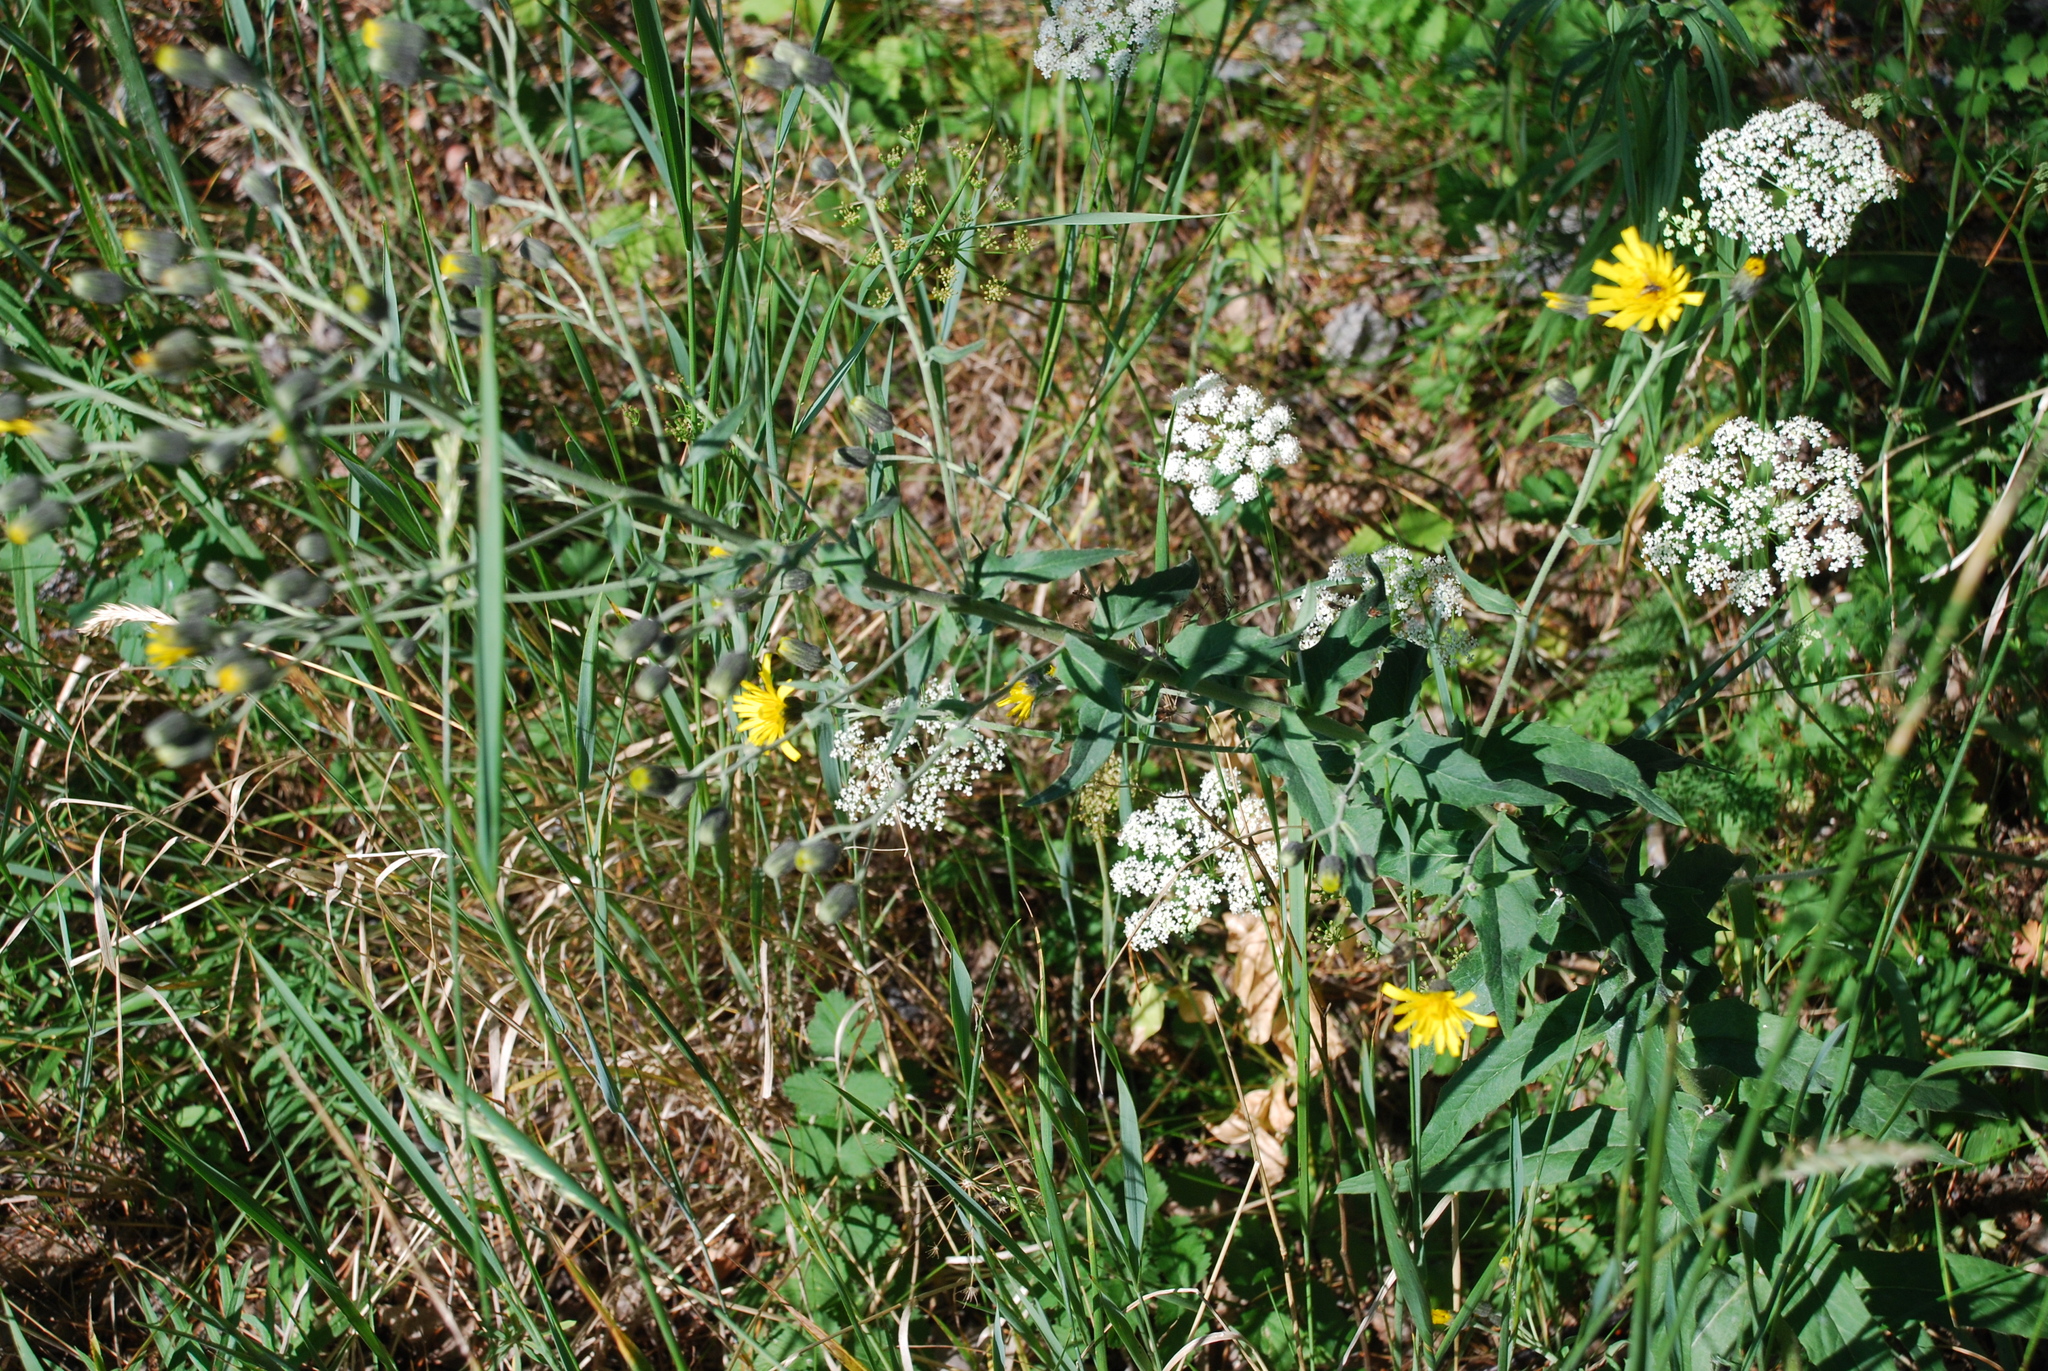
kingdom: Plantae
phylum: Tracheophyta
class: Magnoliopsida
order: Apiales
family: Apiaceae
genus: Pimpinella
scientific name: Pimpinella saxifraga
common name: Burnet-saxifrage
